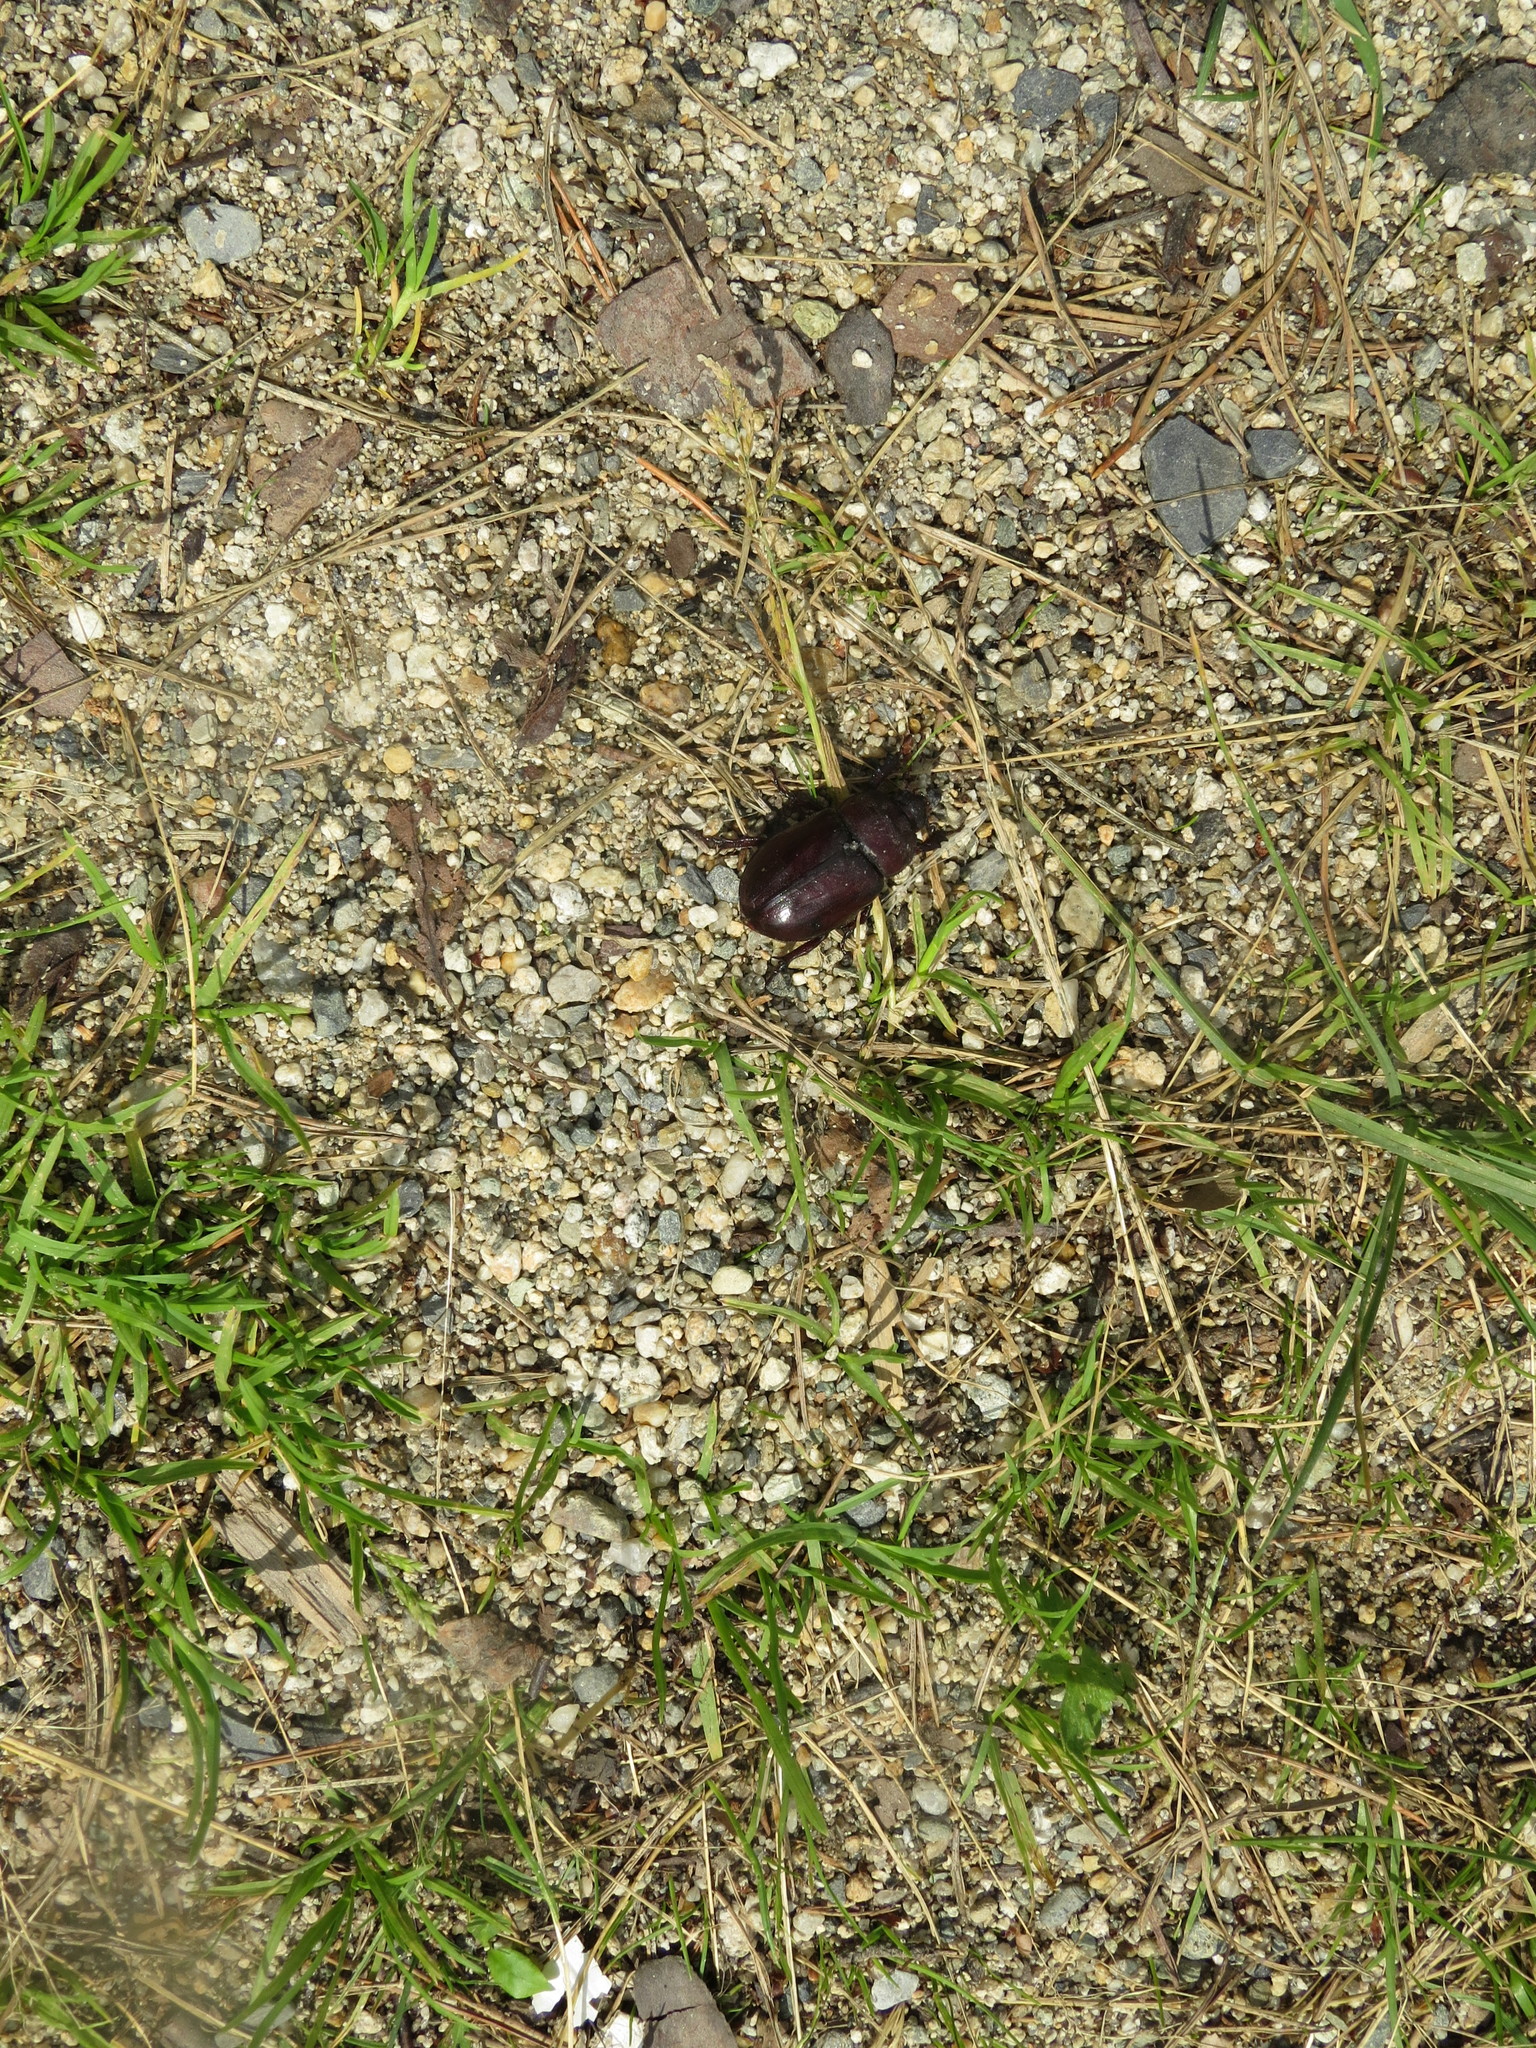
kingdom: Animalia
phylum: Arthropoda
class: Insecta
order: Coleoptera
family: Scarabaeidae
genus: Oryctes
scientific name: Oryctes nasicornis
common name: European rhinoceros beetle
